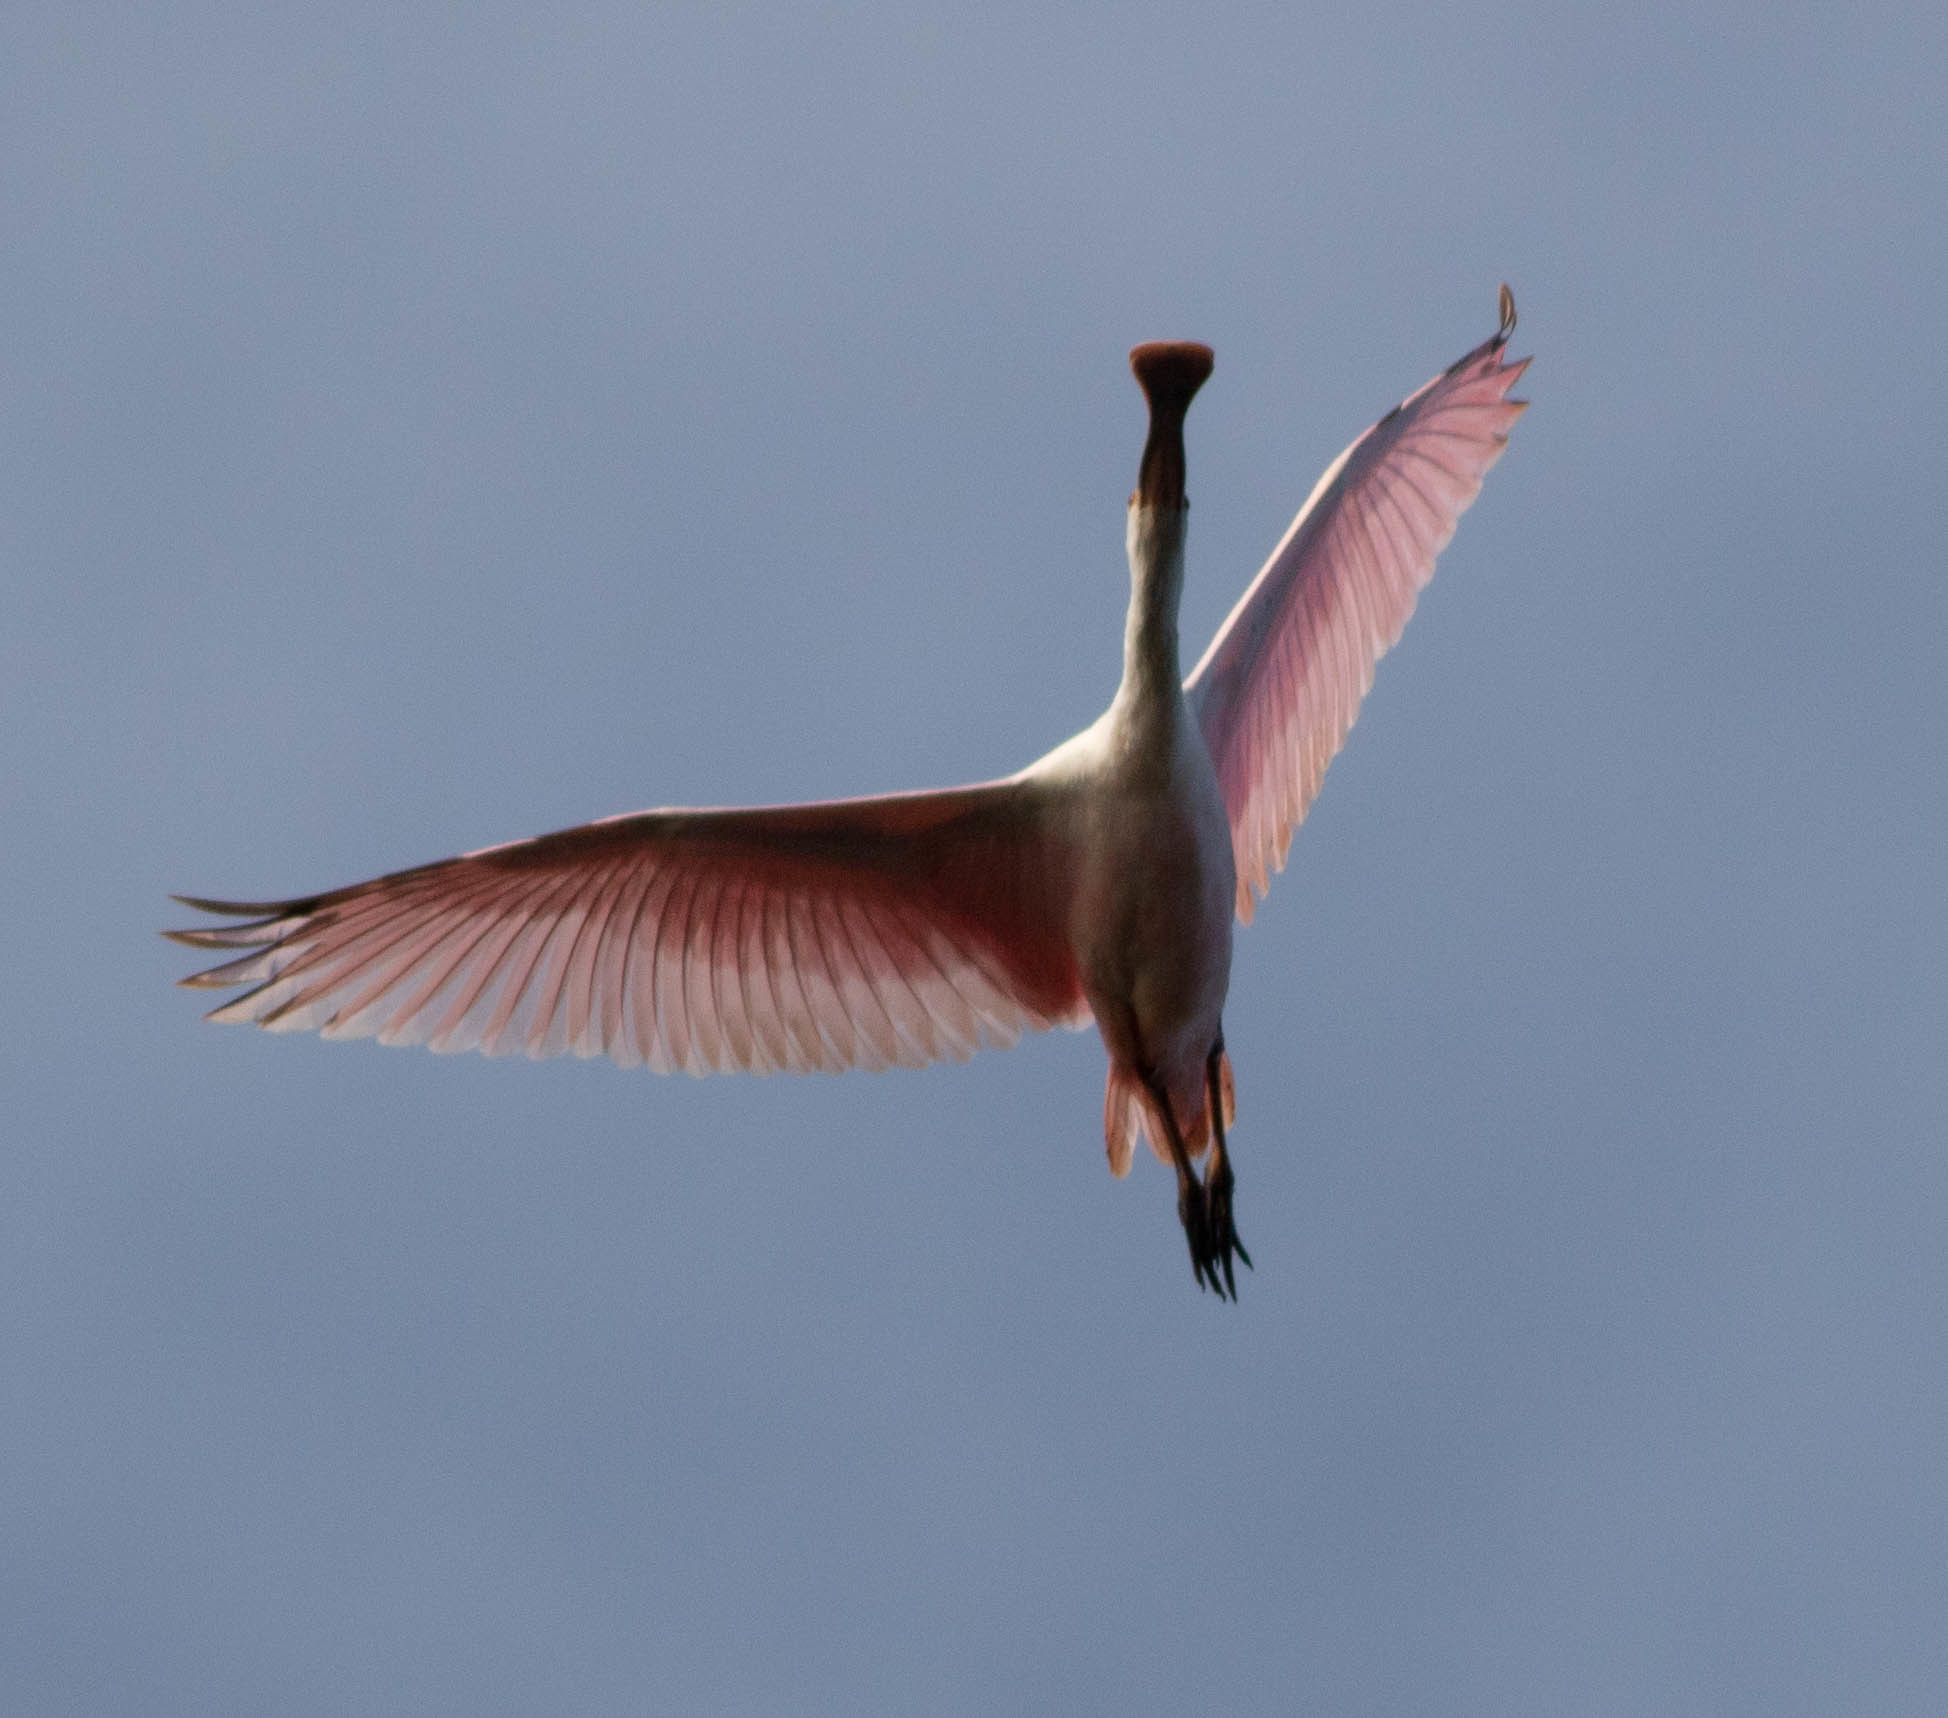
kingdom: Animalia
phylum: Chordata
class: Aves
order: Pelecaniformes
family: Threskiornithidae
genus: Platalea
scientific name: Platalea ajaja
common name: Roseate spoonbill
